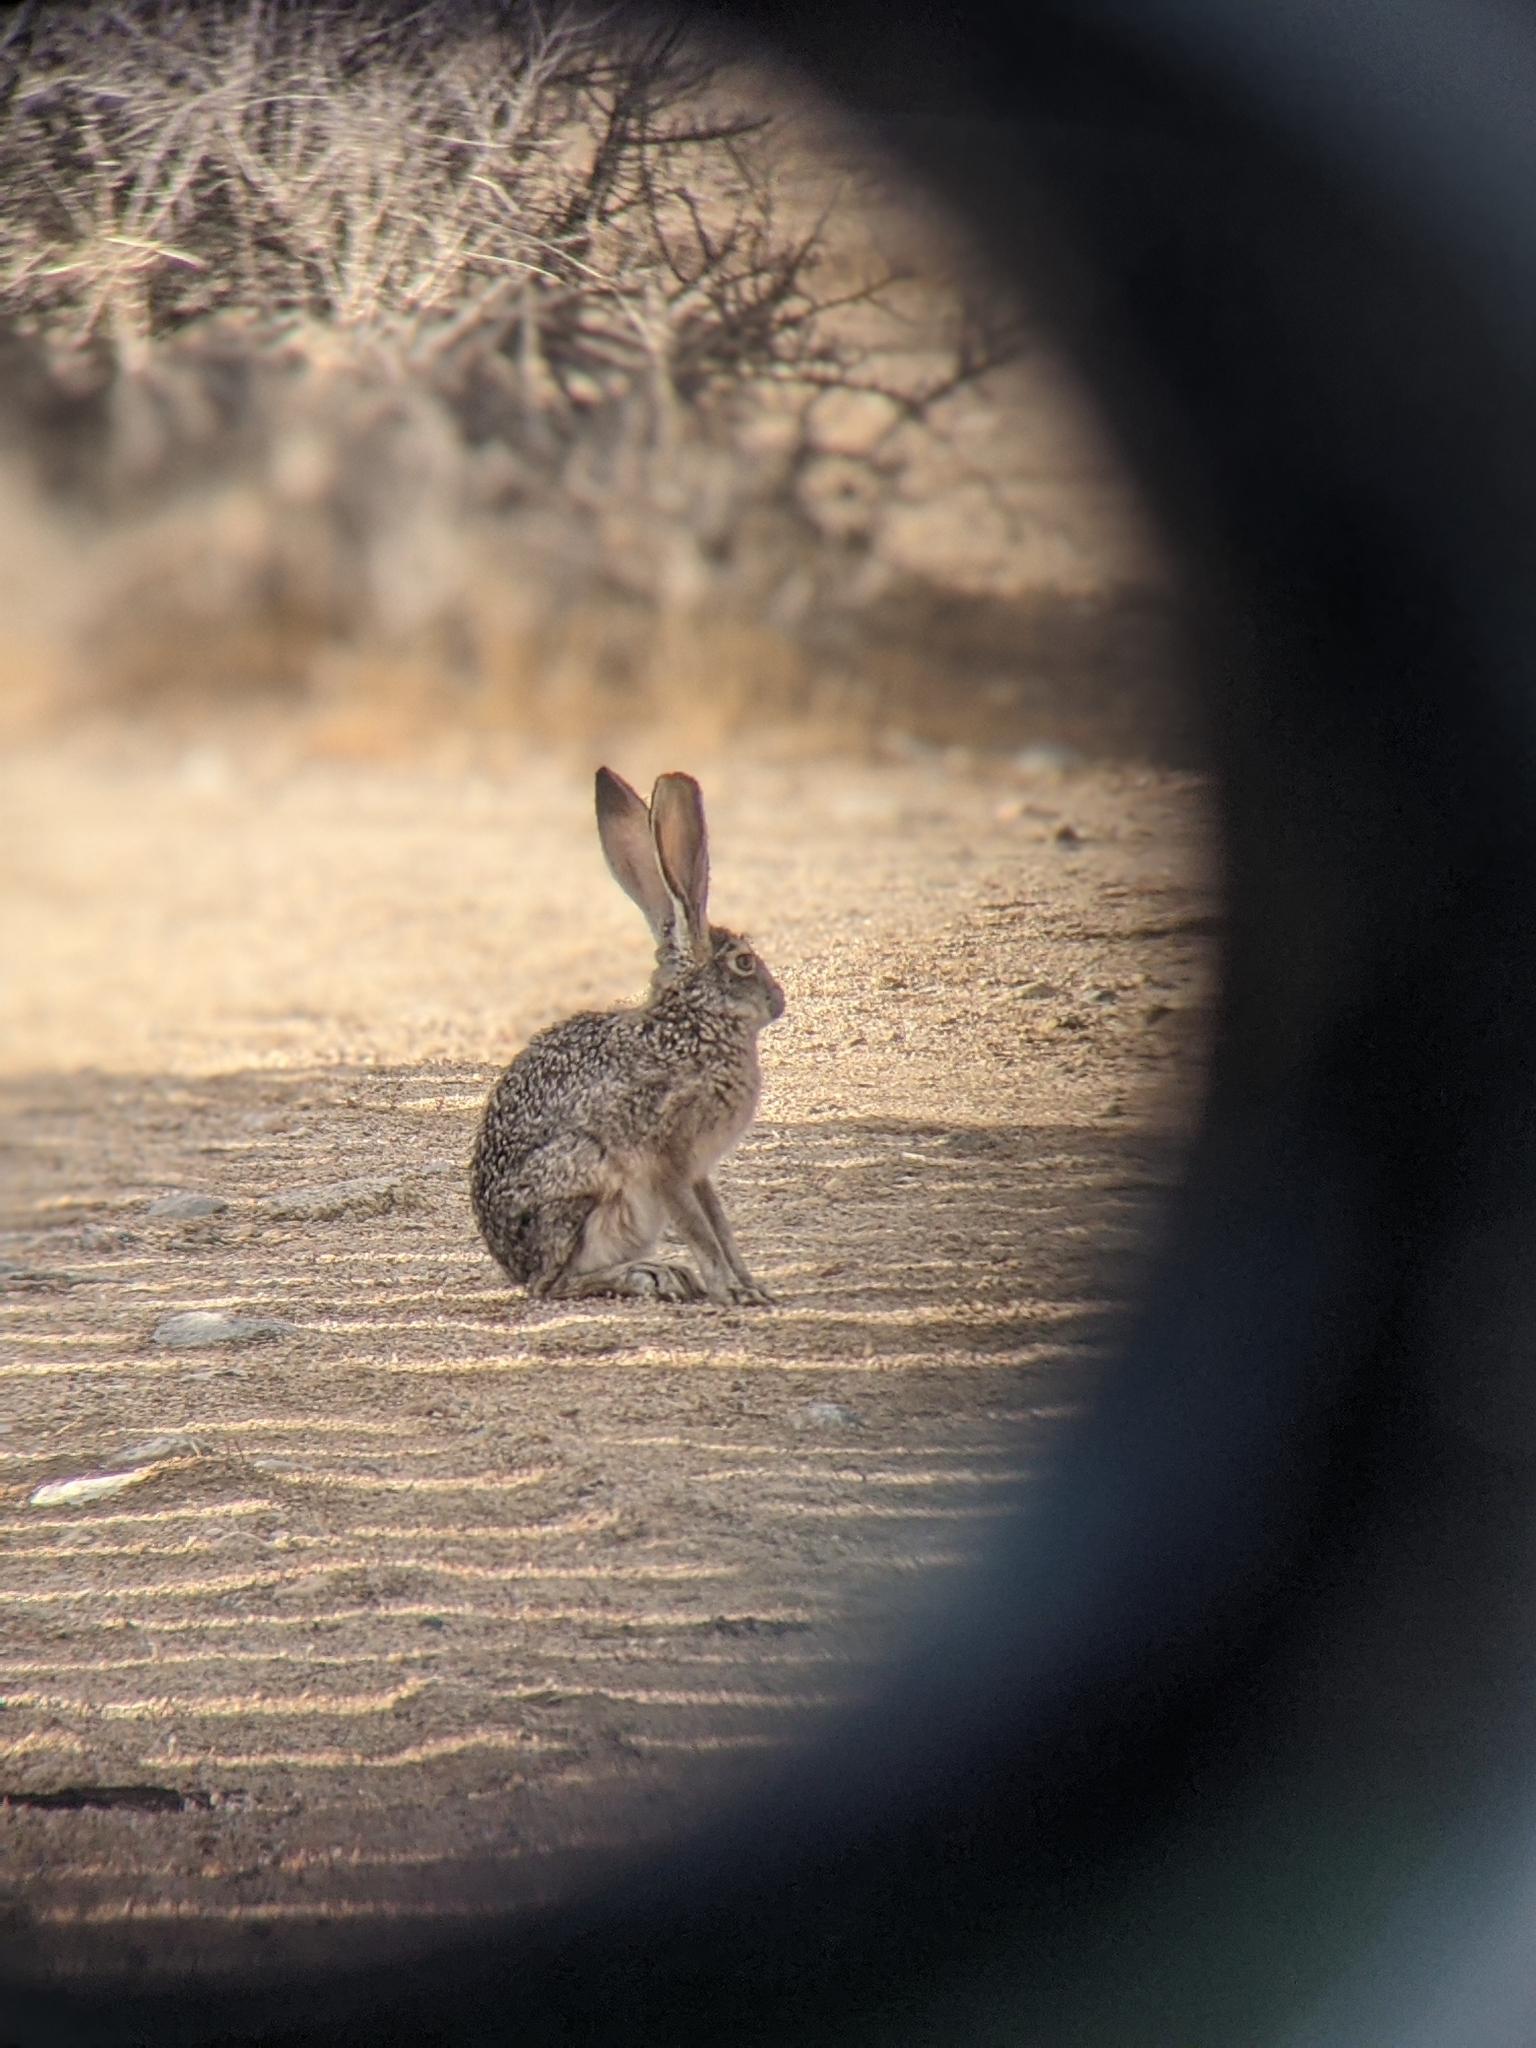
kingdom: Animalia
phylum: Chordata
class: Mammalia
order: Lagomorpha
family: Leporidae
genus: Lepus
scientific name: Lepus californicus
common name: Black-tailed jackrabbit
